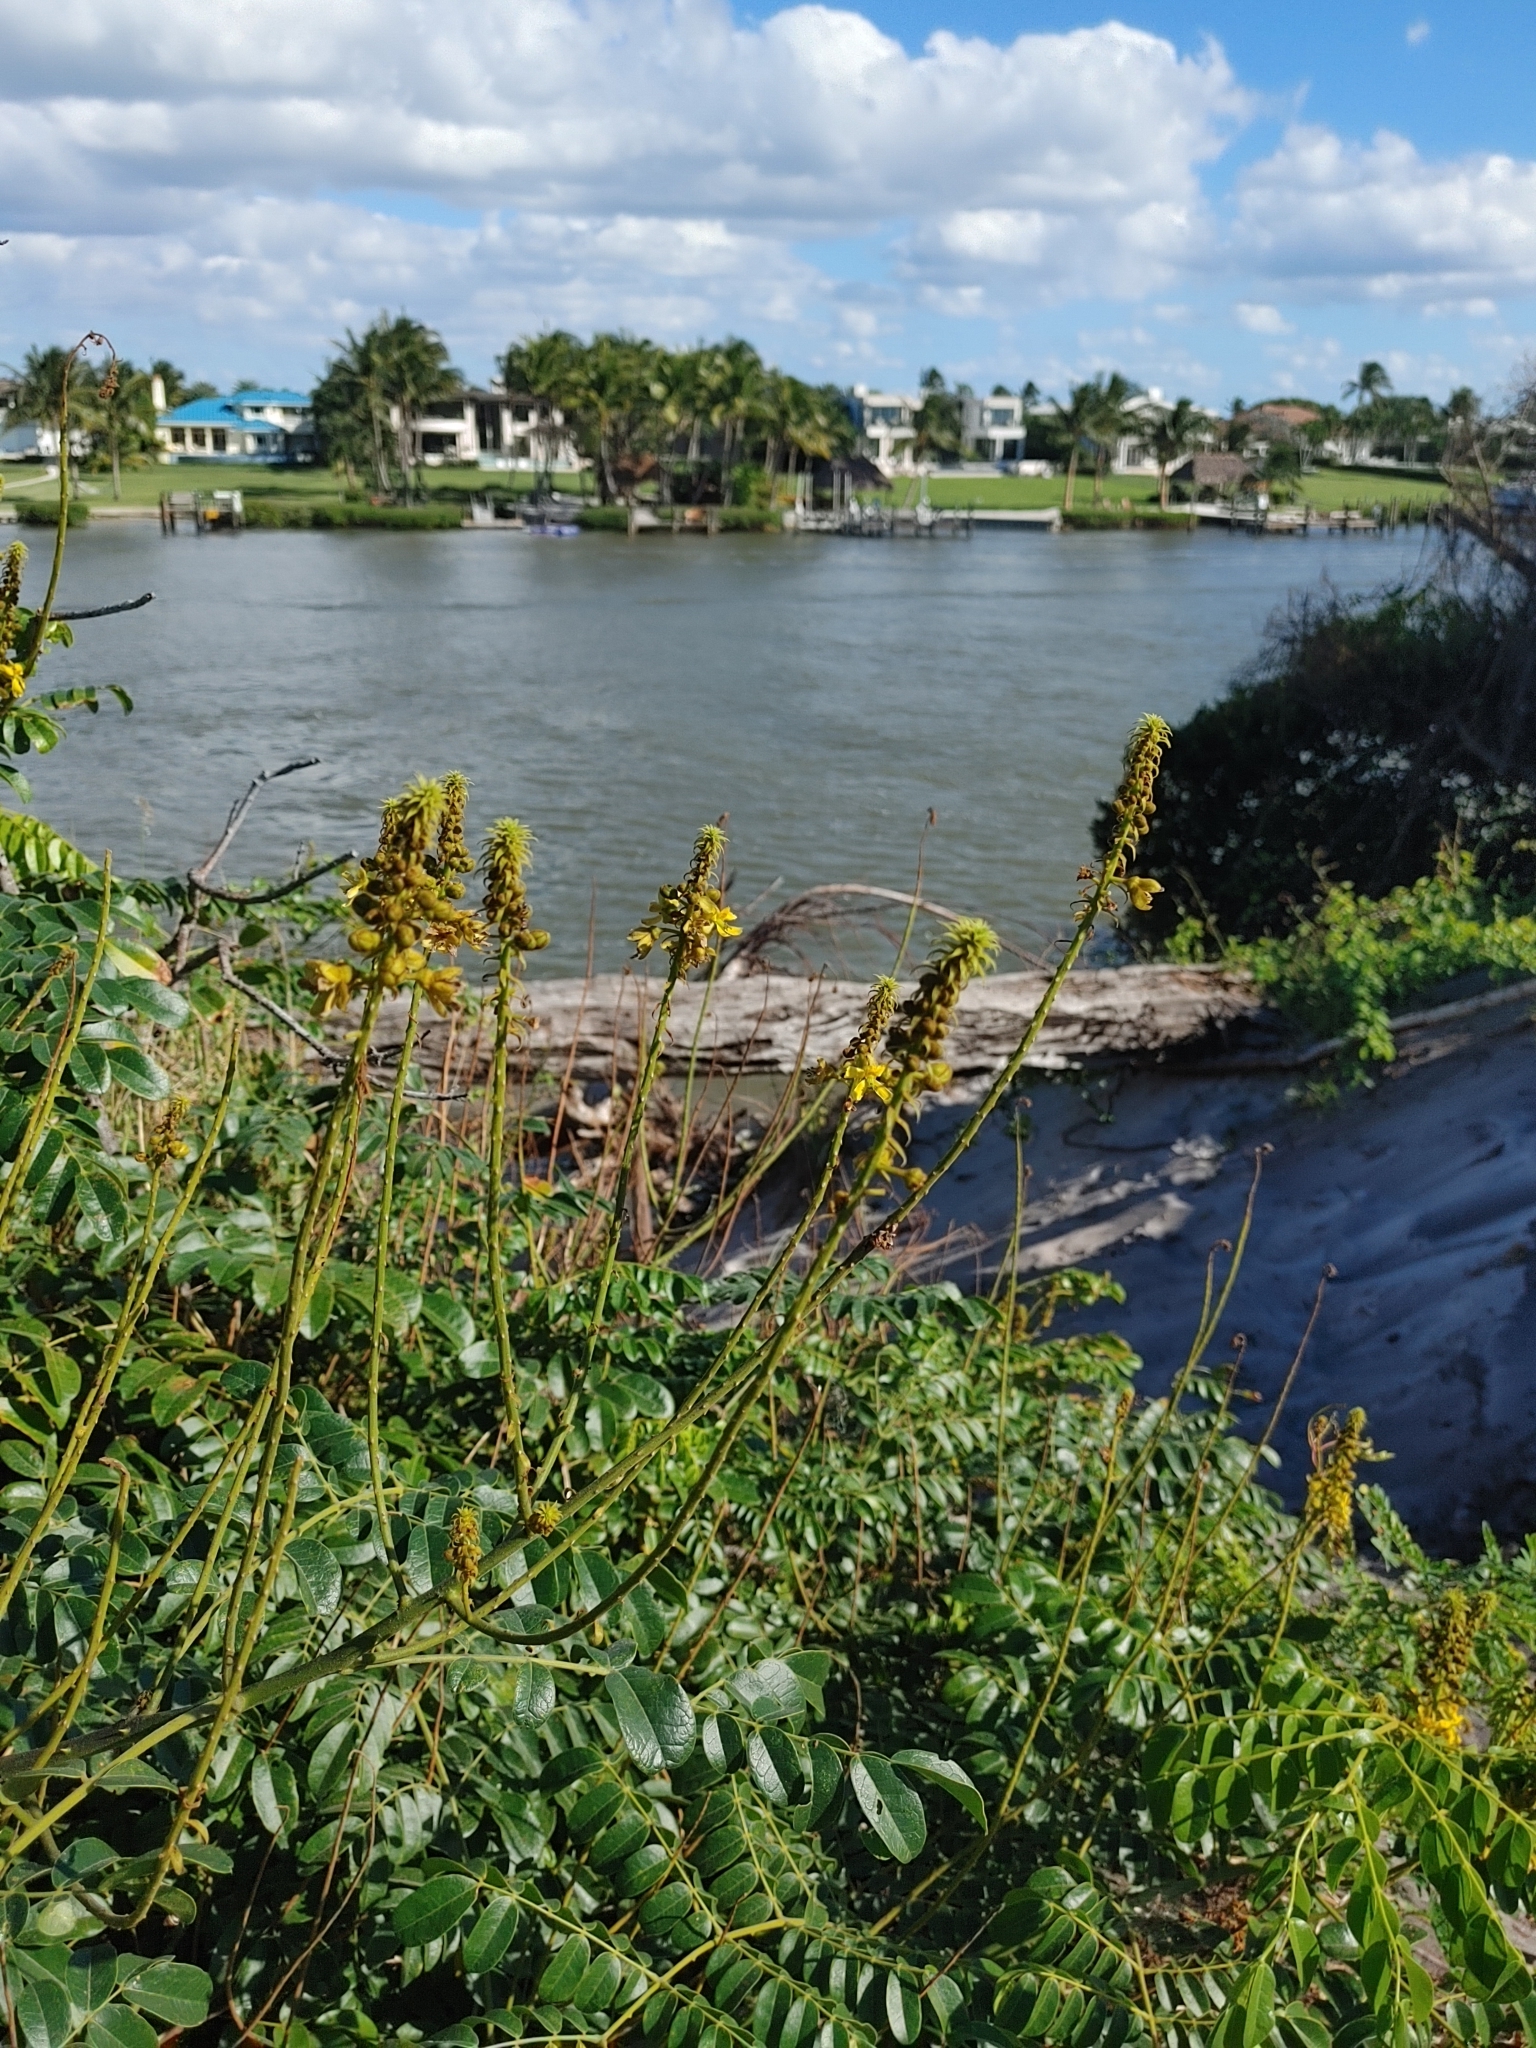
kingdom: Plantae
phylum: Tracheophyta
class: Magnoliopsida
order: Fabales
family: Fabaceae
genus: Guilandina
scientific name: Guilandina bonduc
